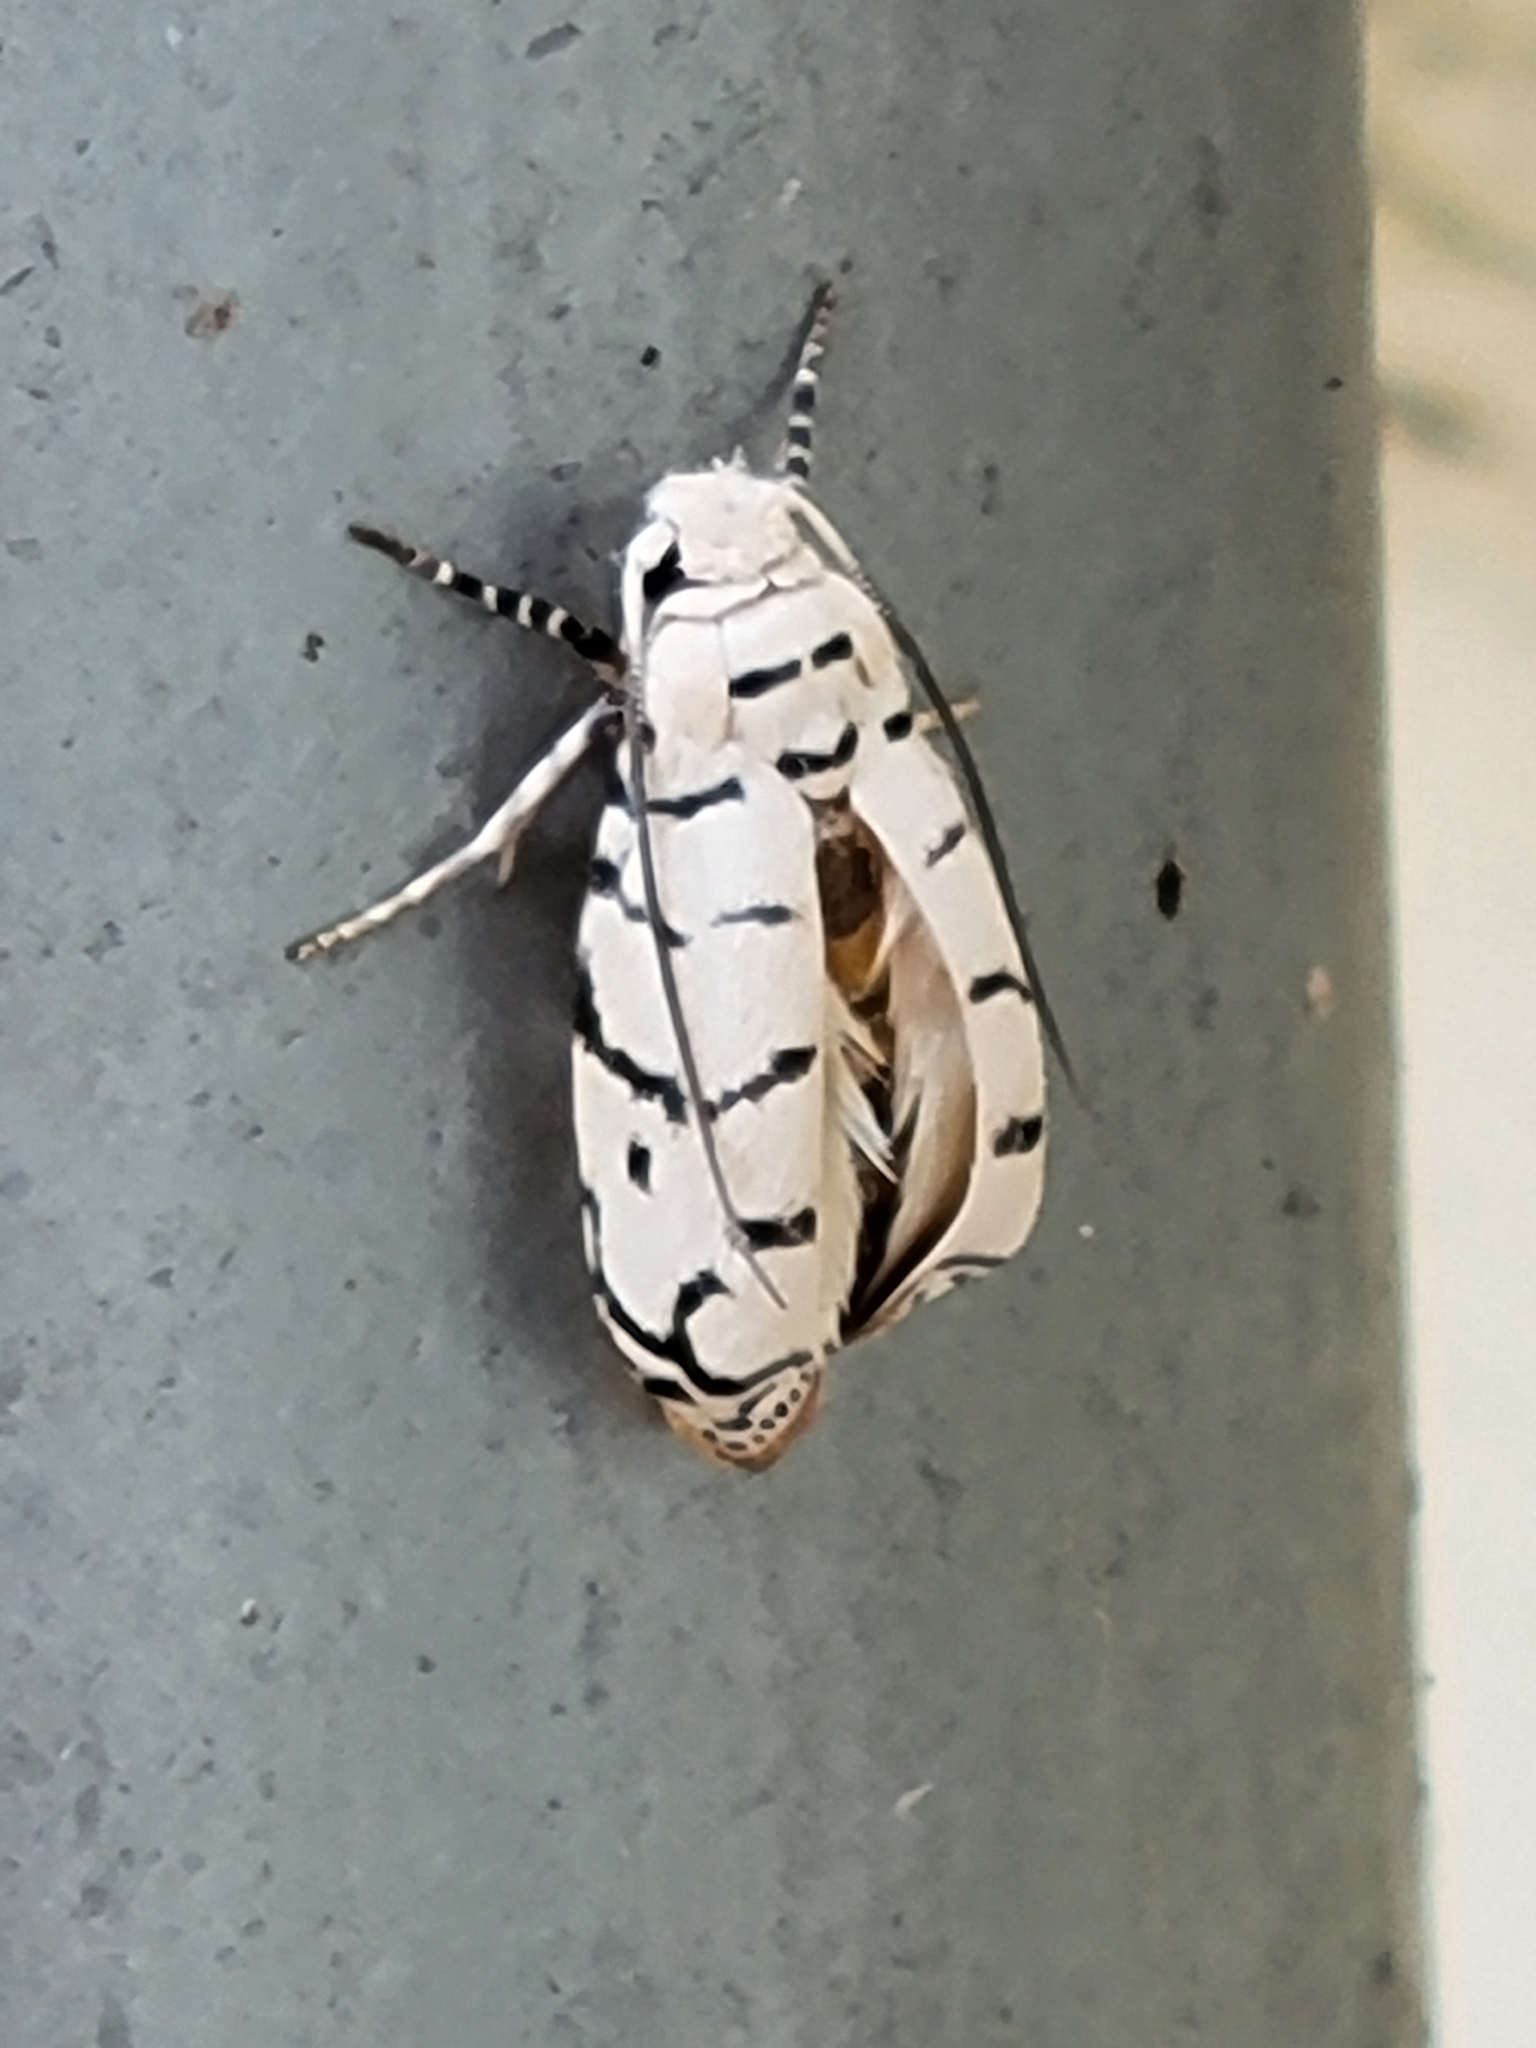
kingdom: Animalia
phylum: Arthropoda
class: Insecta
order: Lepidoptera
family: Ethmiidae
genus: Ethmia
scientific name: Ethmia delliella
